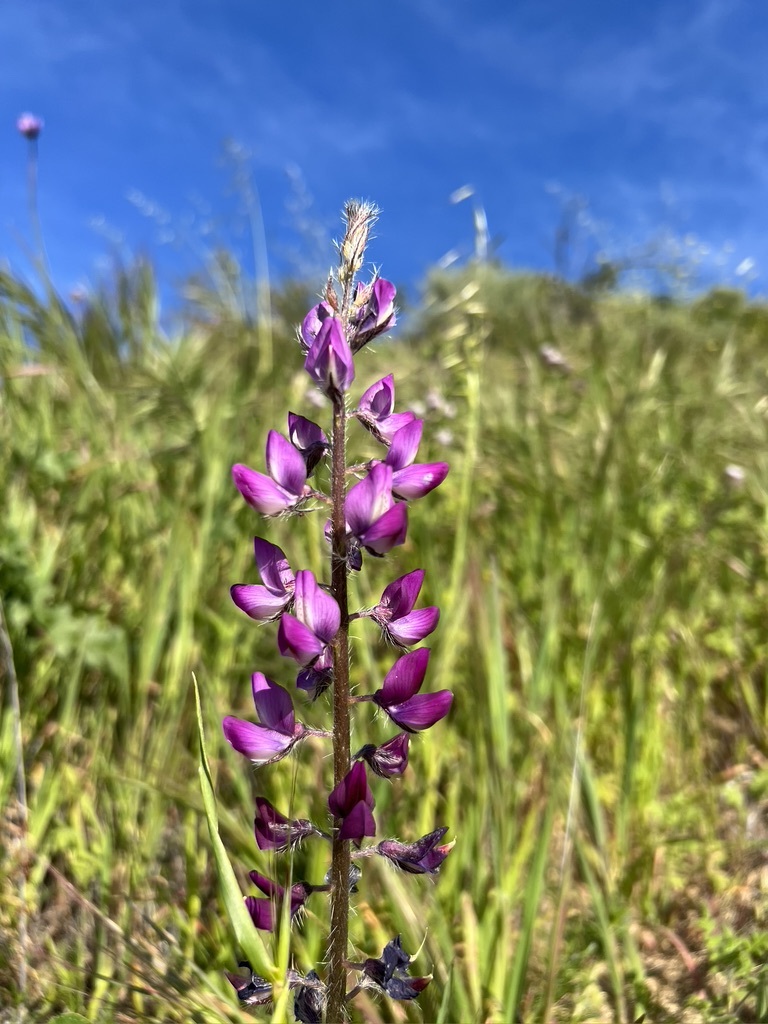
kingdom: Plantae
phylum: Tracheophyta
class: Magnoliopsida
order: Fabales
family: Fabaceae
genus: Lupinus
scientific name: Lupinus hirsutissimus
